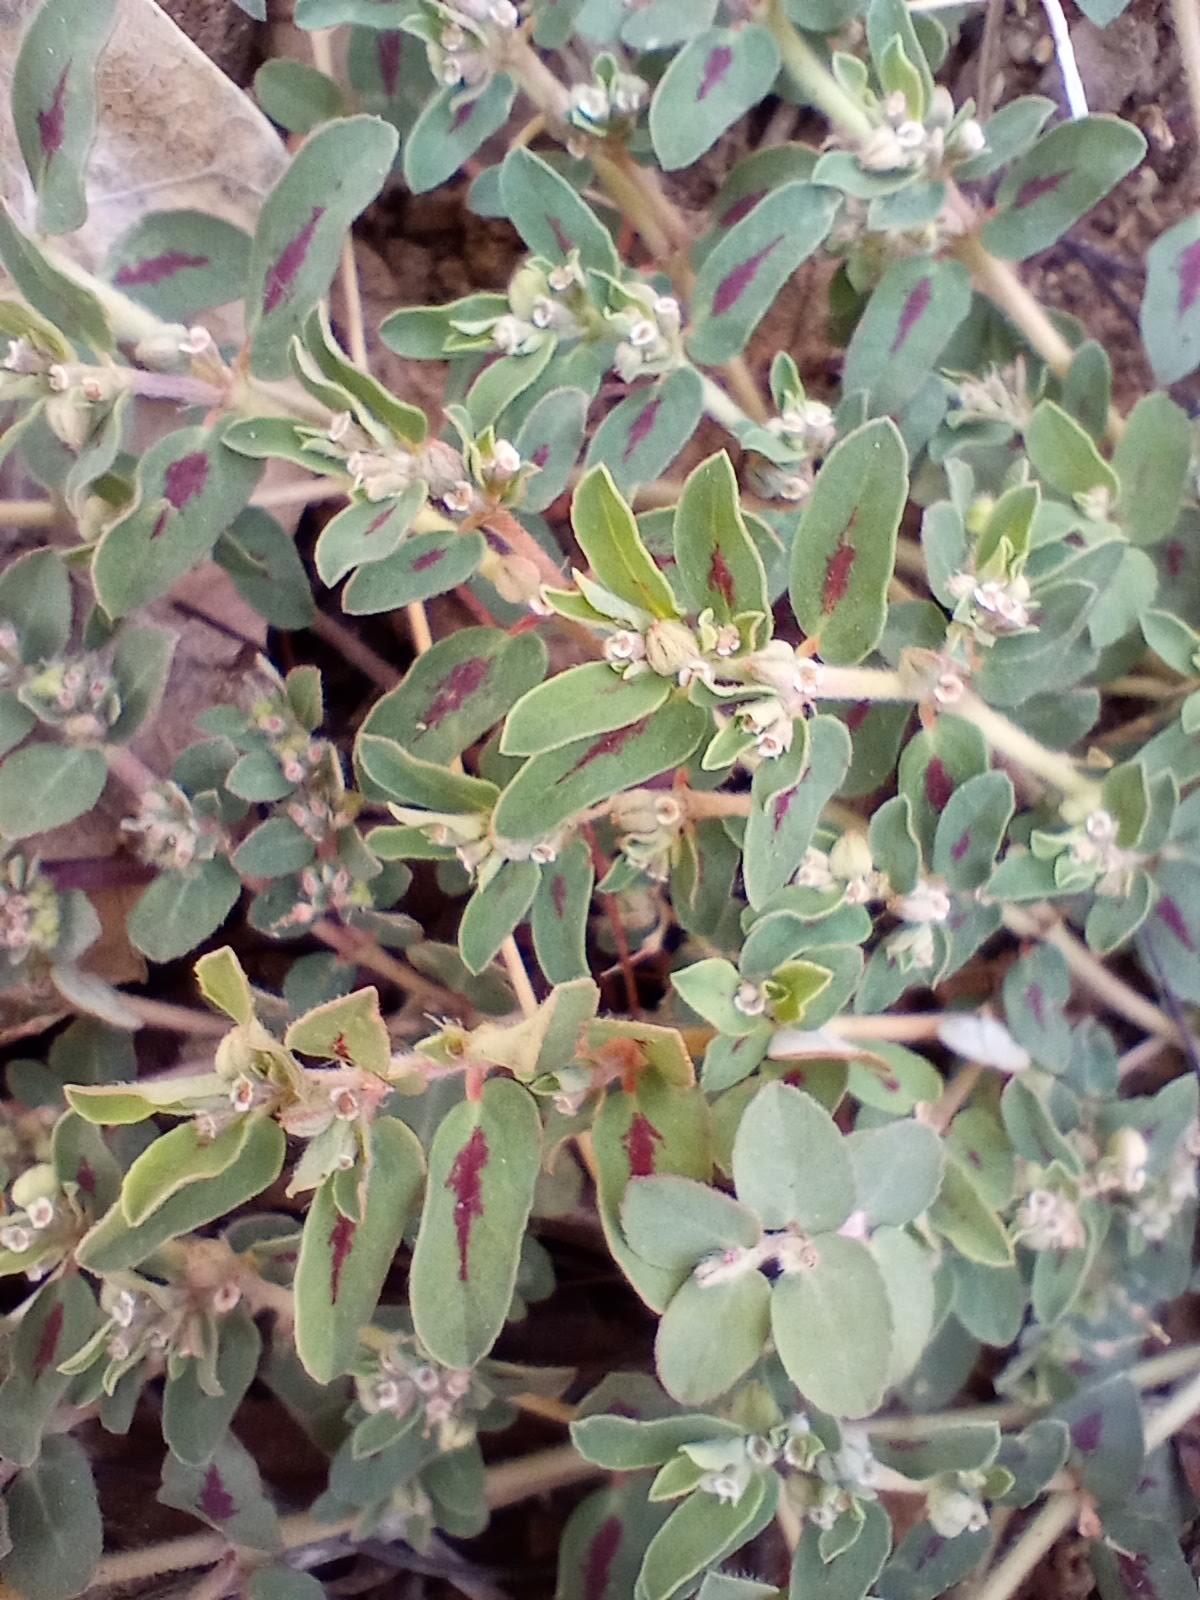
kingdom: Plantae
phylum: Tracheophyta
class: Magnoliopsida
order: Malpighiales
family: Euphorbiaceae
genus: Euphorbia
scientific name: Euphorbia maculata
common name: Spotted spurge
